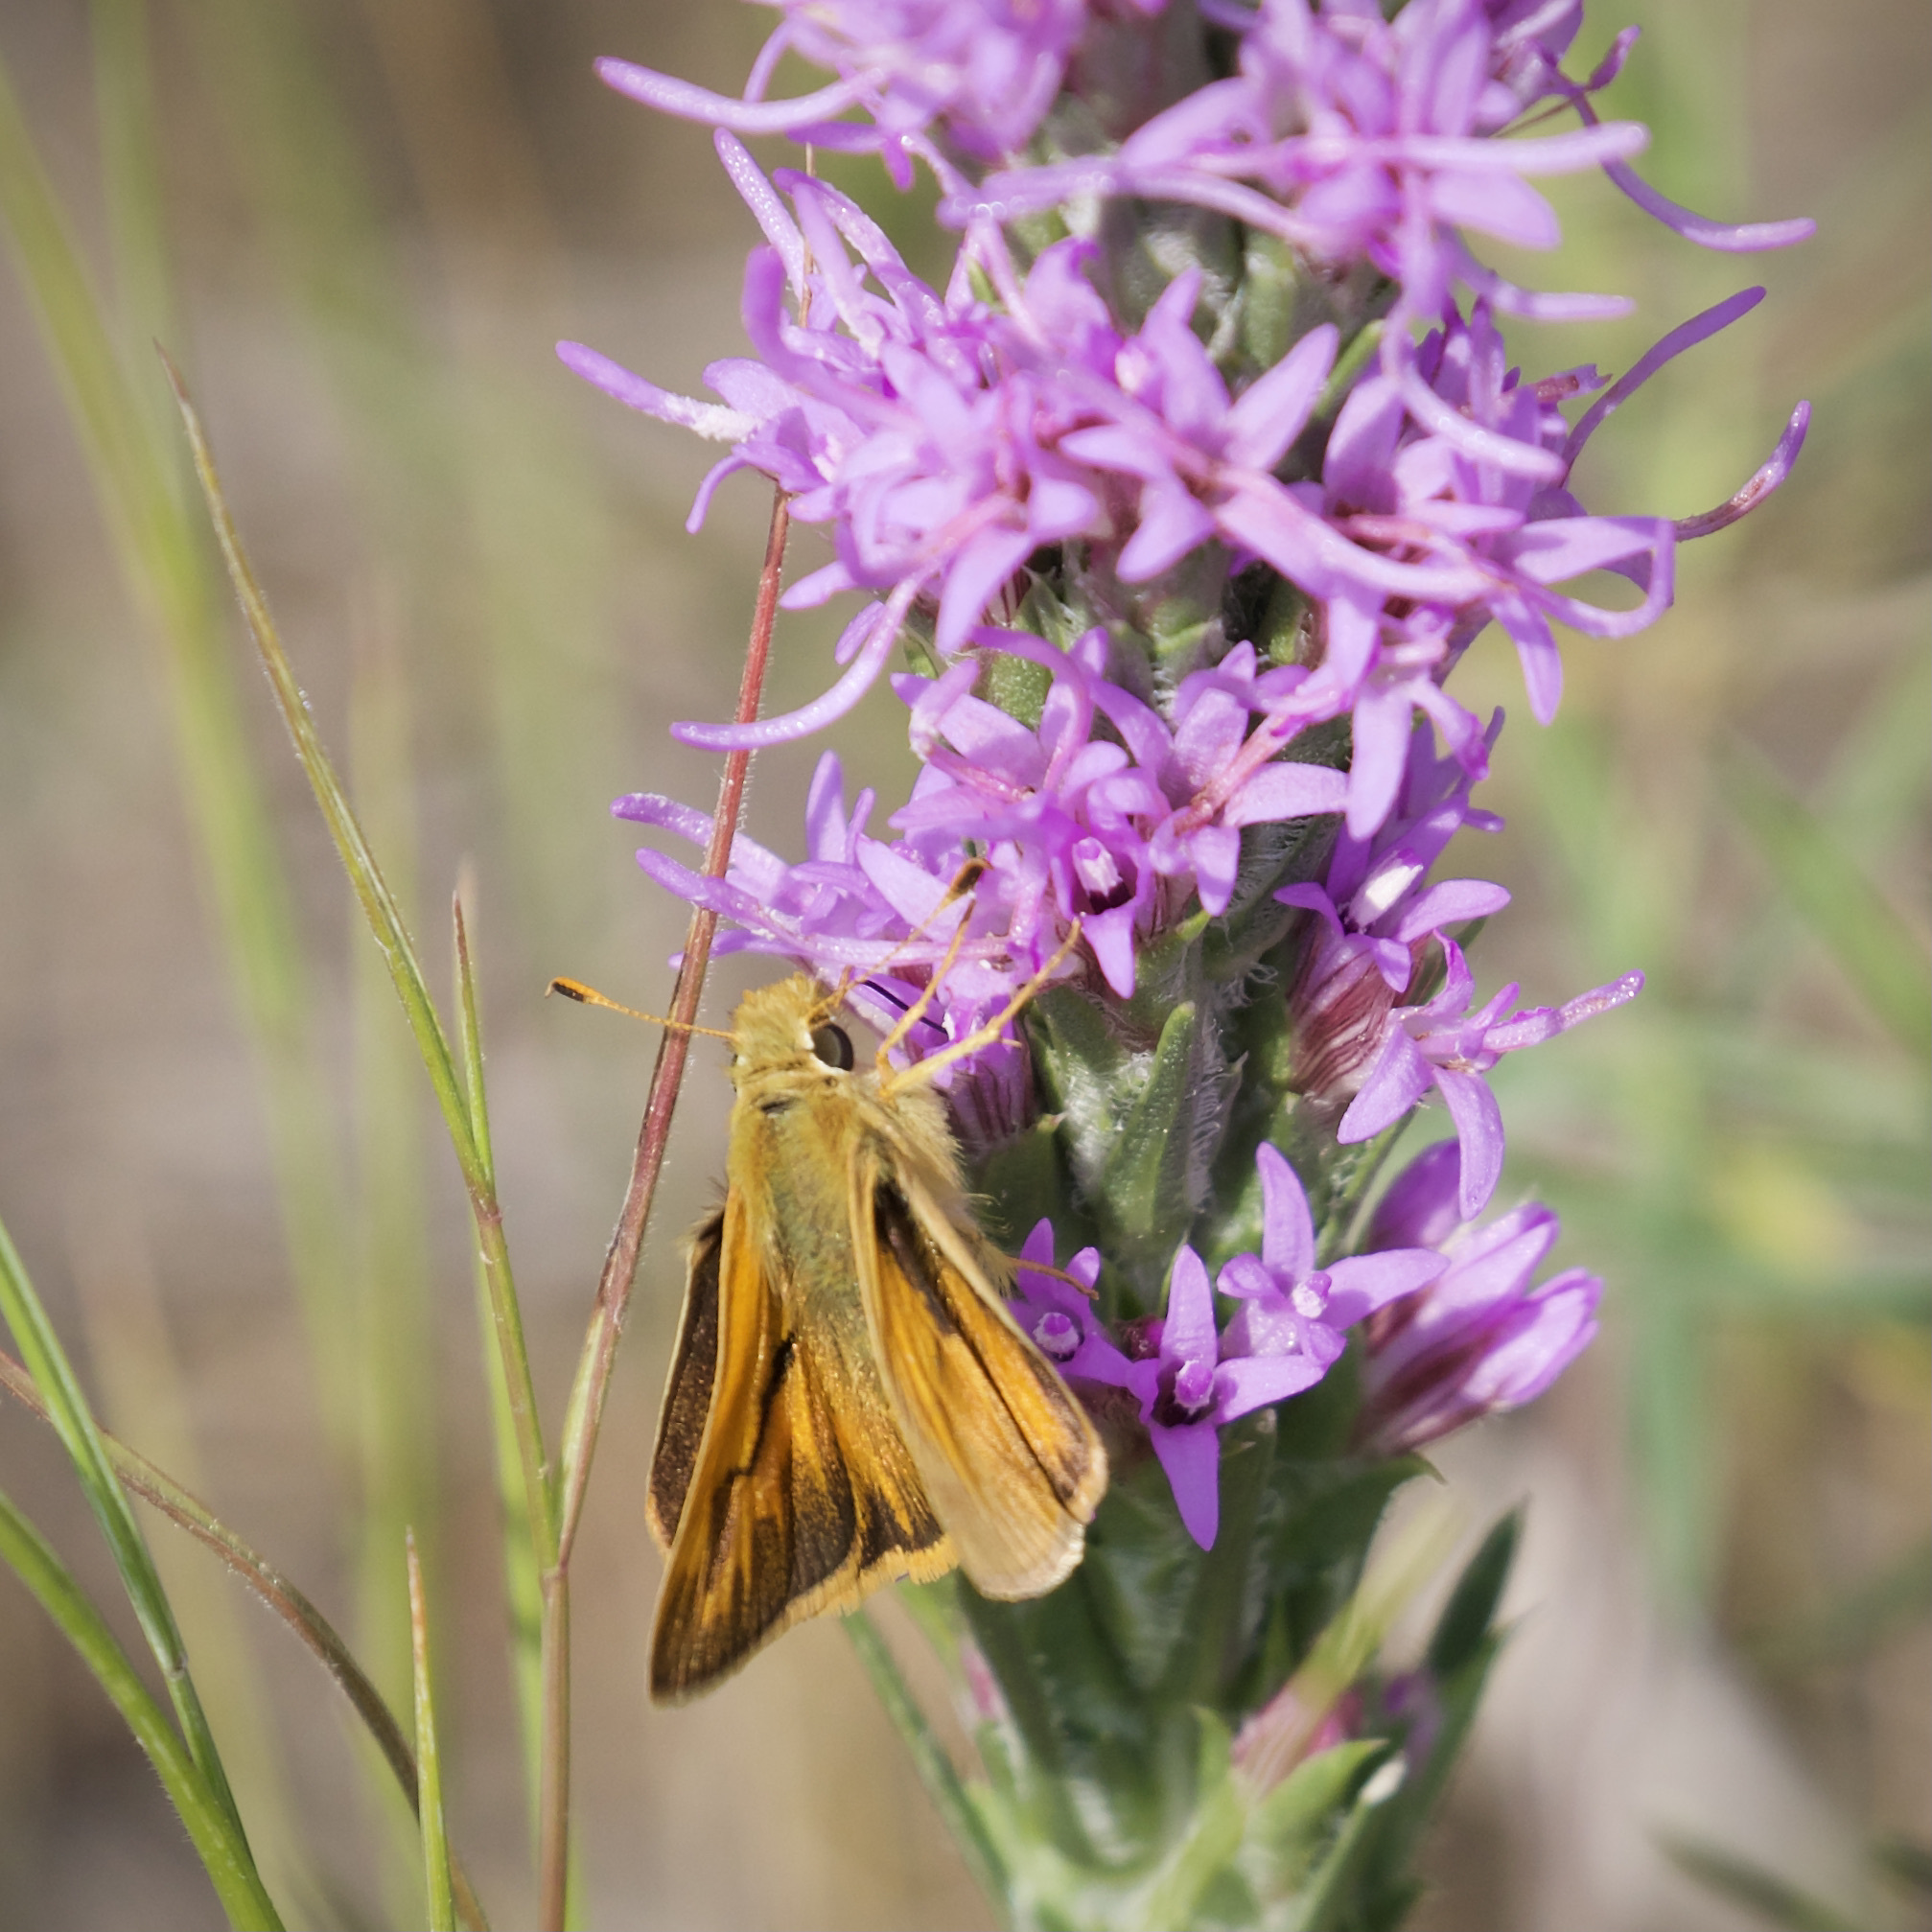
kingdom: Animalia
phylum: Arthropoda
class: Insecta
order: Lepidoptera
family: Hesperiidae
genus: Ochlodes
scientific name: Ochlodes sylvanoides
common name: Woodland skipper
